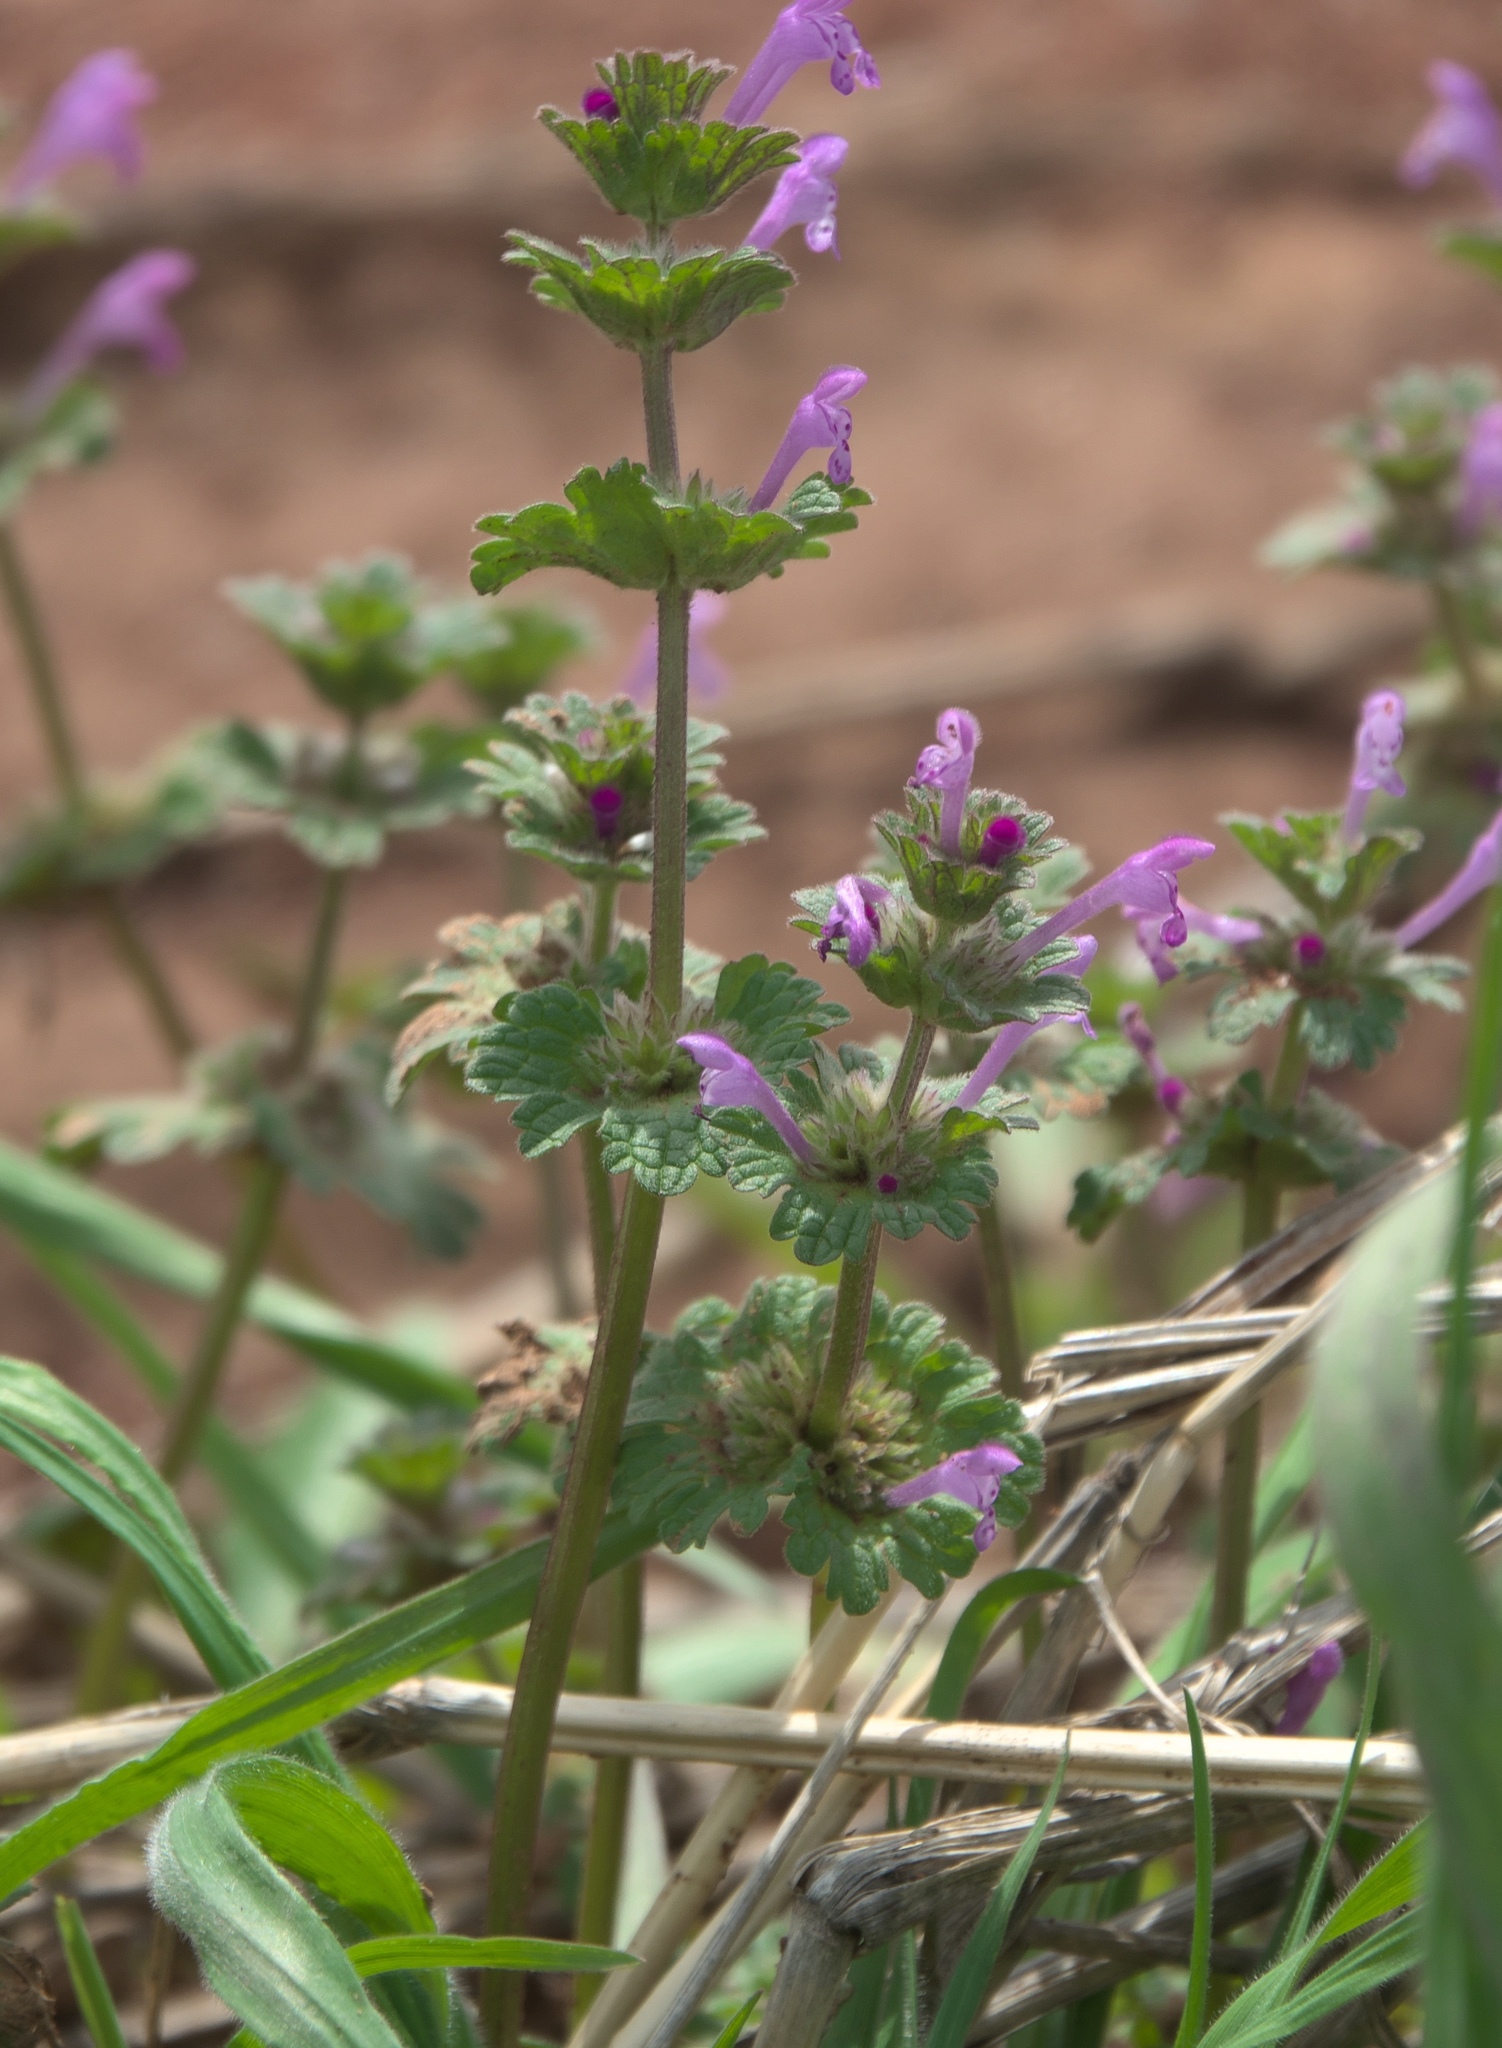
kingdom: Plantae
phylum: Tracheophyta
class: Magnoliopsida
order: Lamiales
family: Lamiaceae
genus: Lamium
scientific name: Lamium amplexicaule
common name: Henbit dead-nettle
